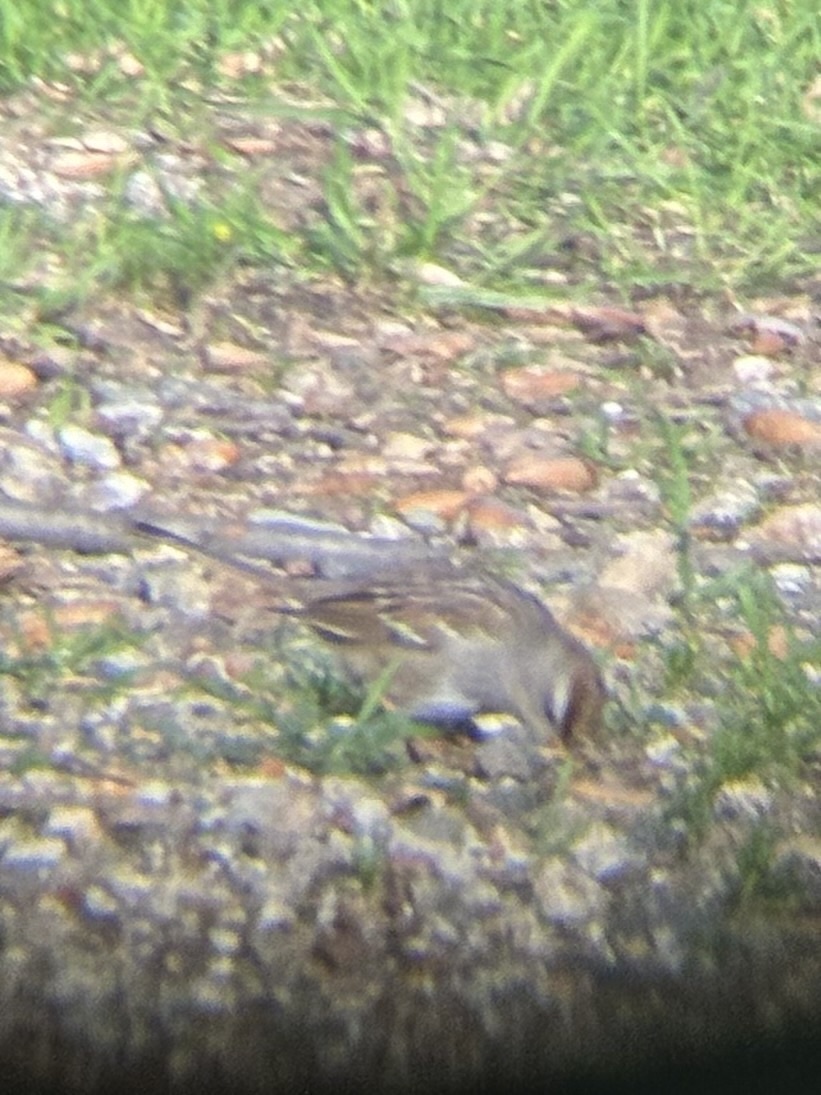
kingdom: Animalia
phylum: Chordata
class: Aves
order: Passeriformes
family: Passerellidae
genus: Zonotrichia
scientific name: Zonotrichia leucophrys
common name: White-crowned sparrow
